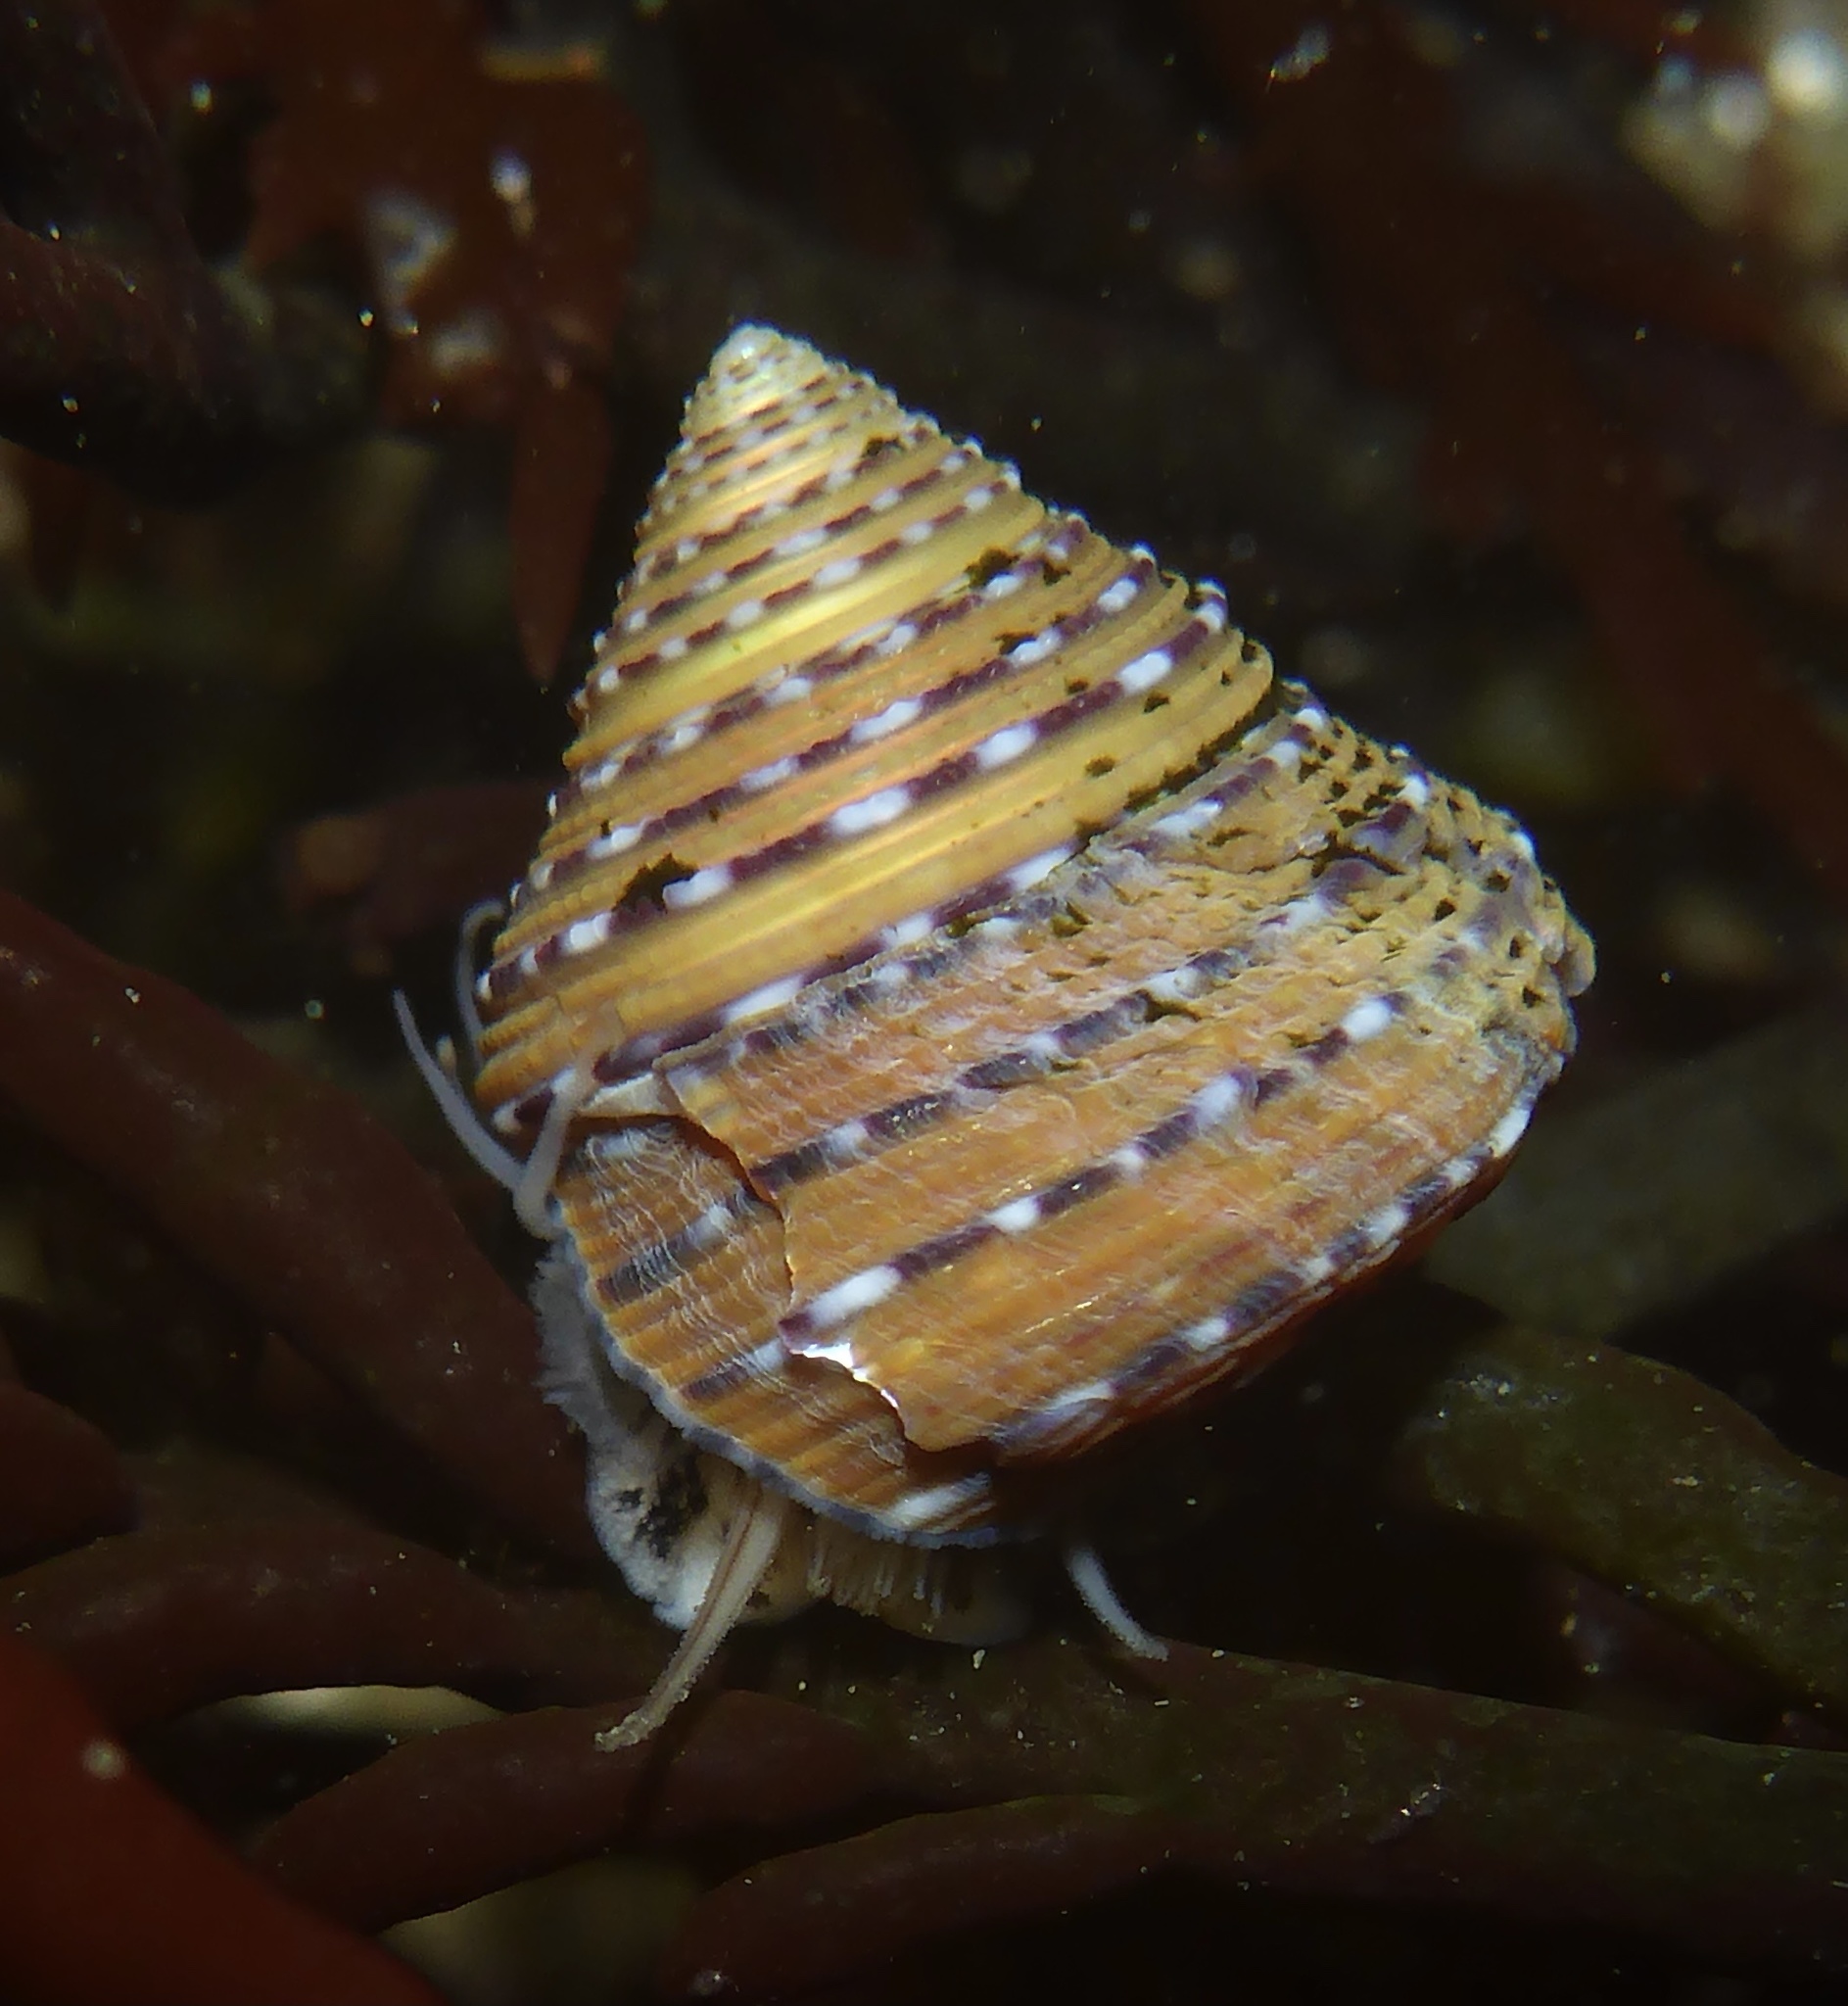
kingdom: Animalia
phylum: Mollusca
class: Gastropoda
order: Trochida
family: Calliostomatidae
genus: Calliostoma
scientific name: Calliostoma tricolor
